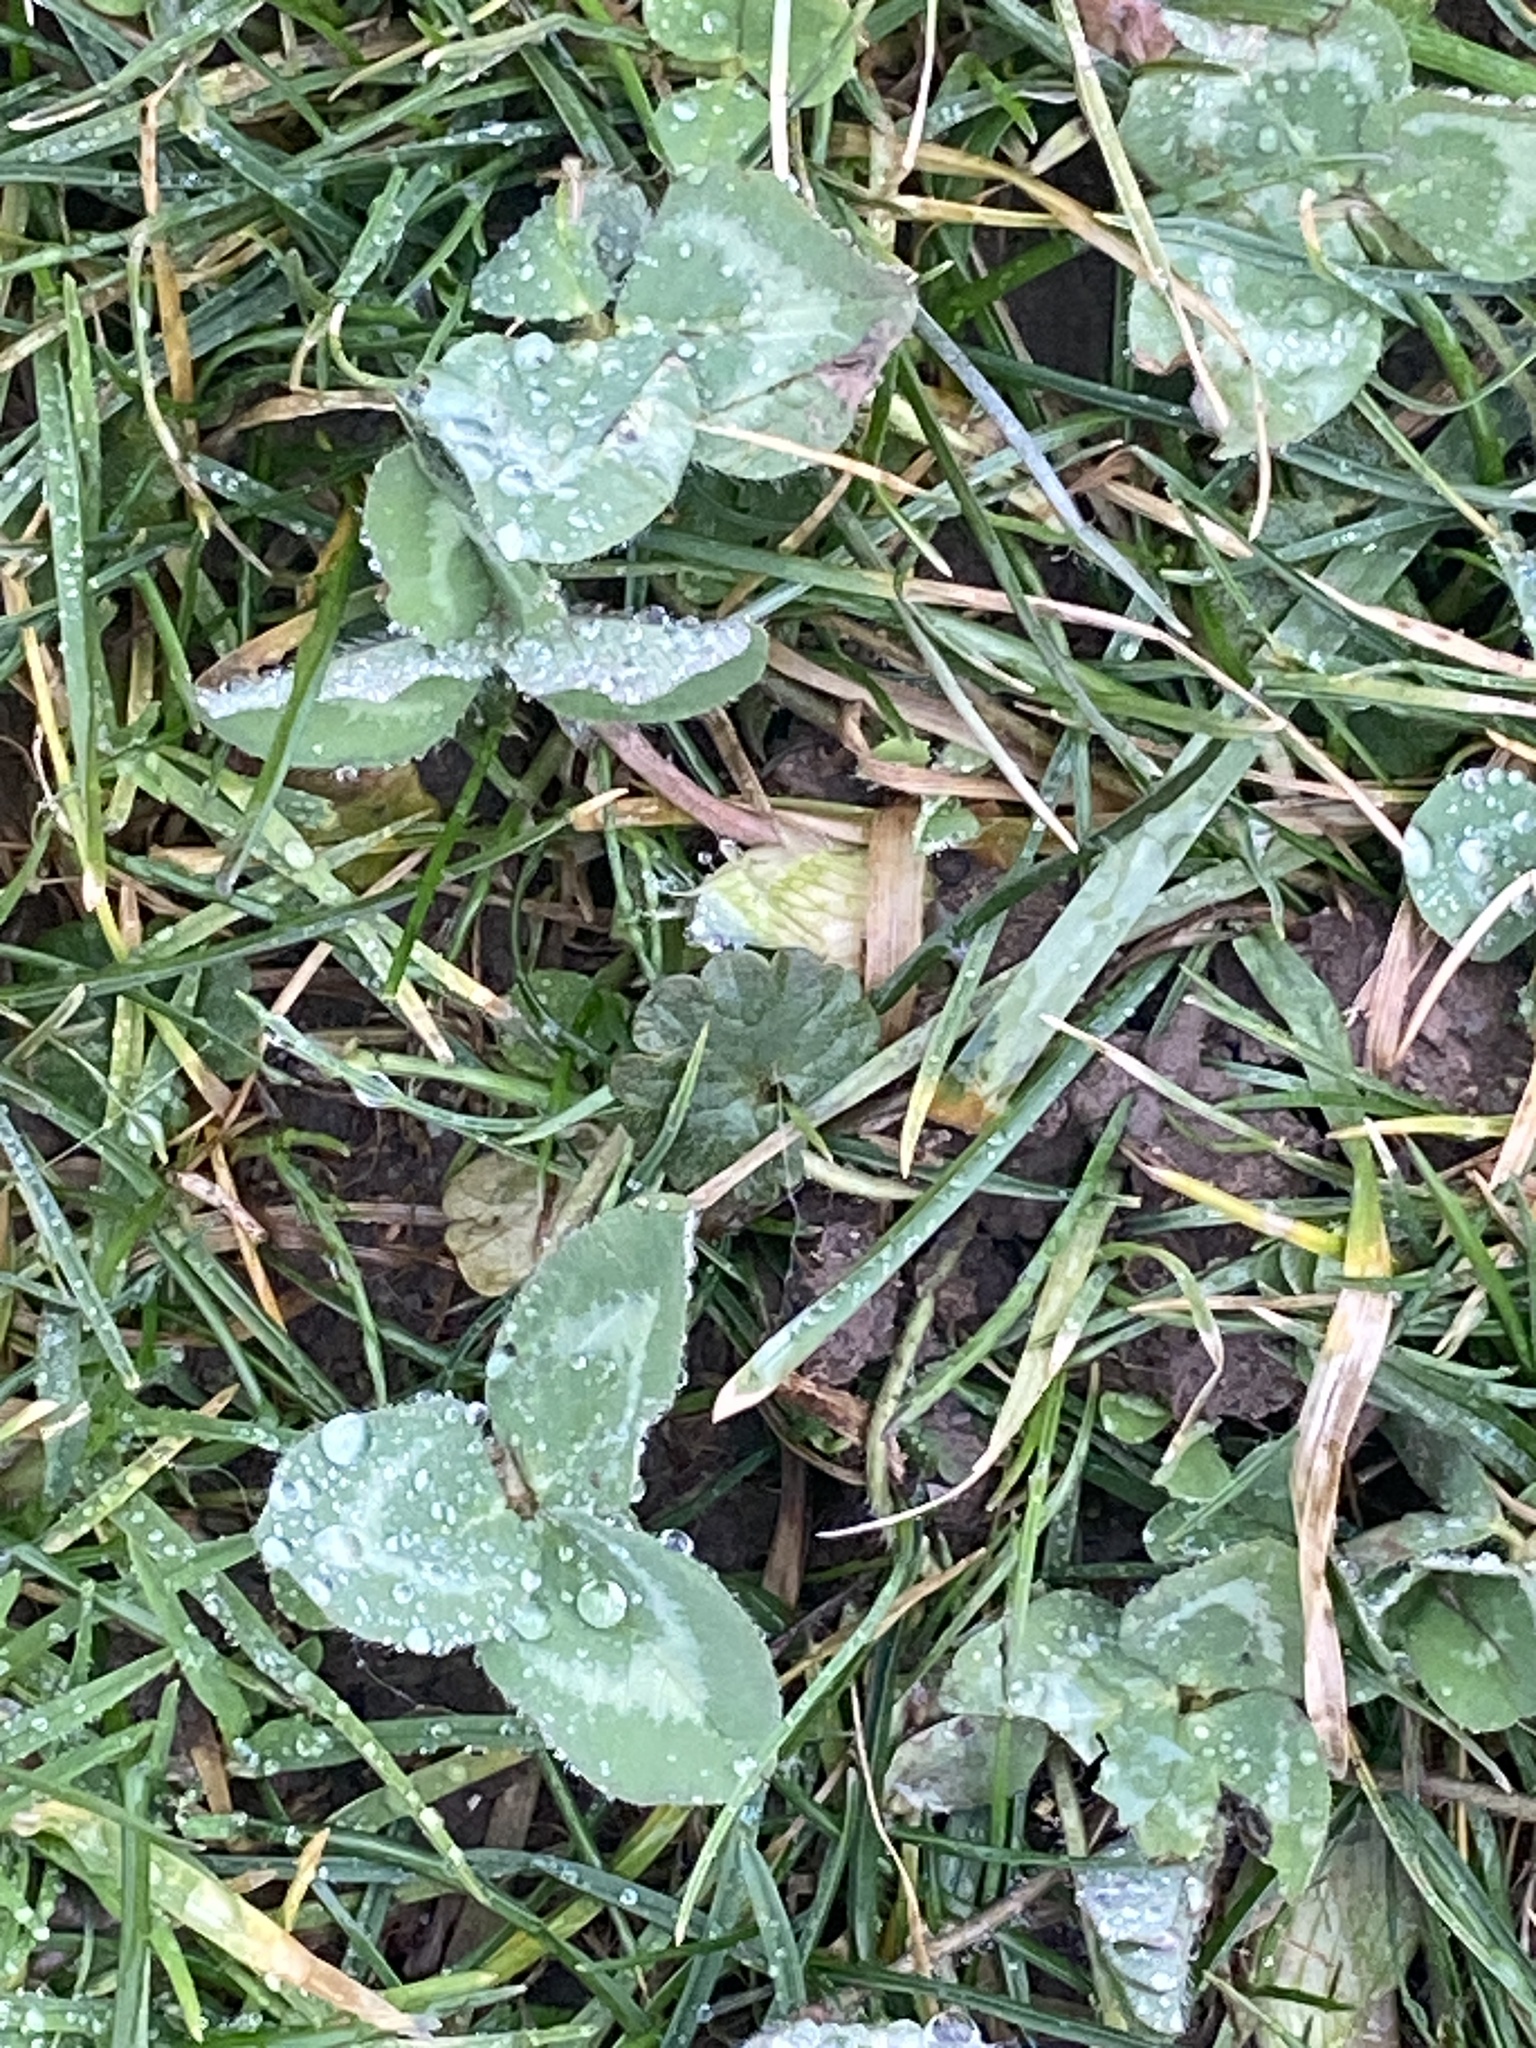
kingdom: Plantae
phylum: Tracheophyta
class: Magnoliopsida
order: Fabales
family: Fabaceae
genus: Trifolium
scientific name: Trifolium pratense
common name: Red clover
